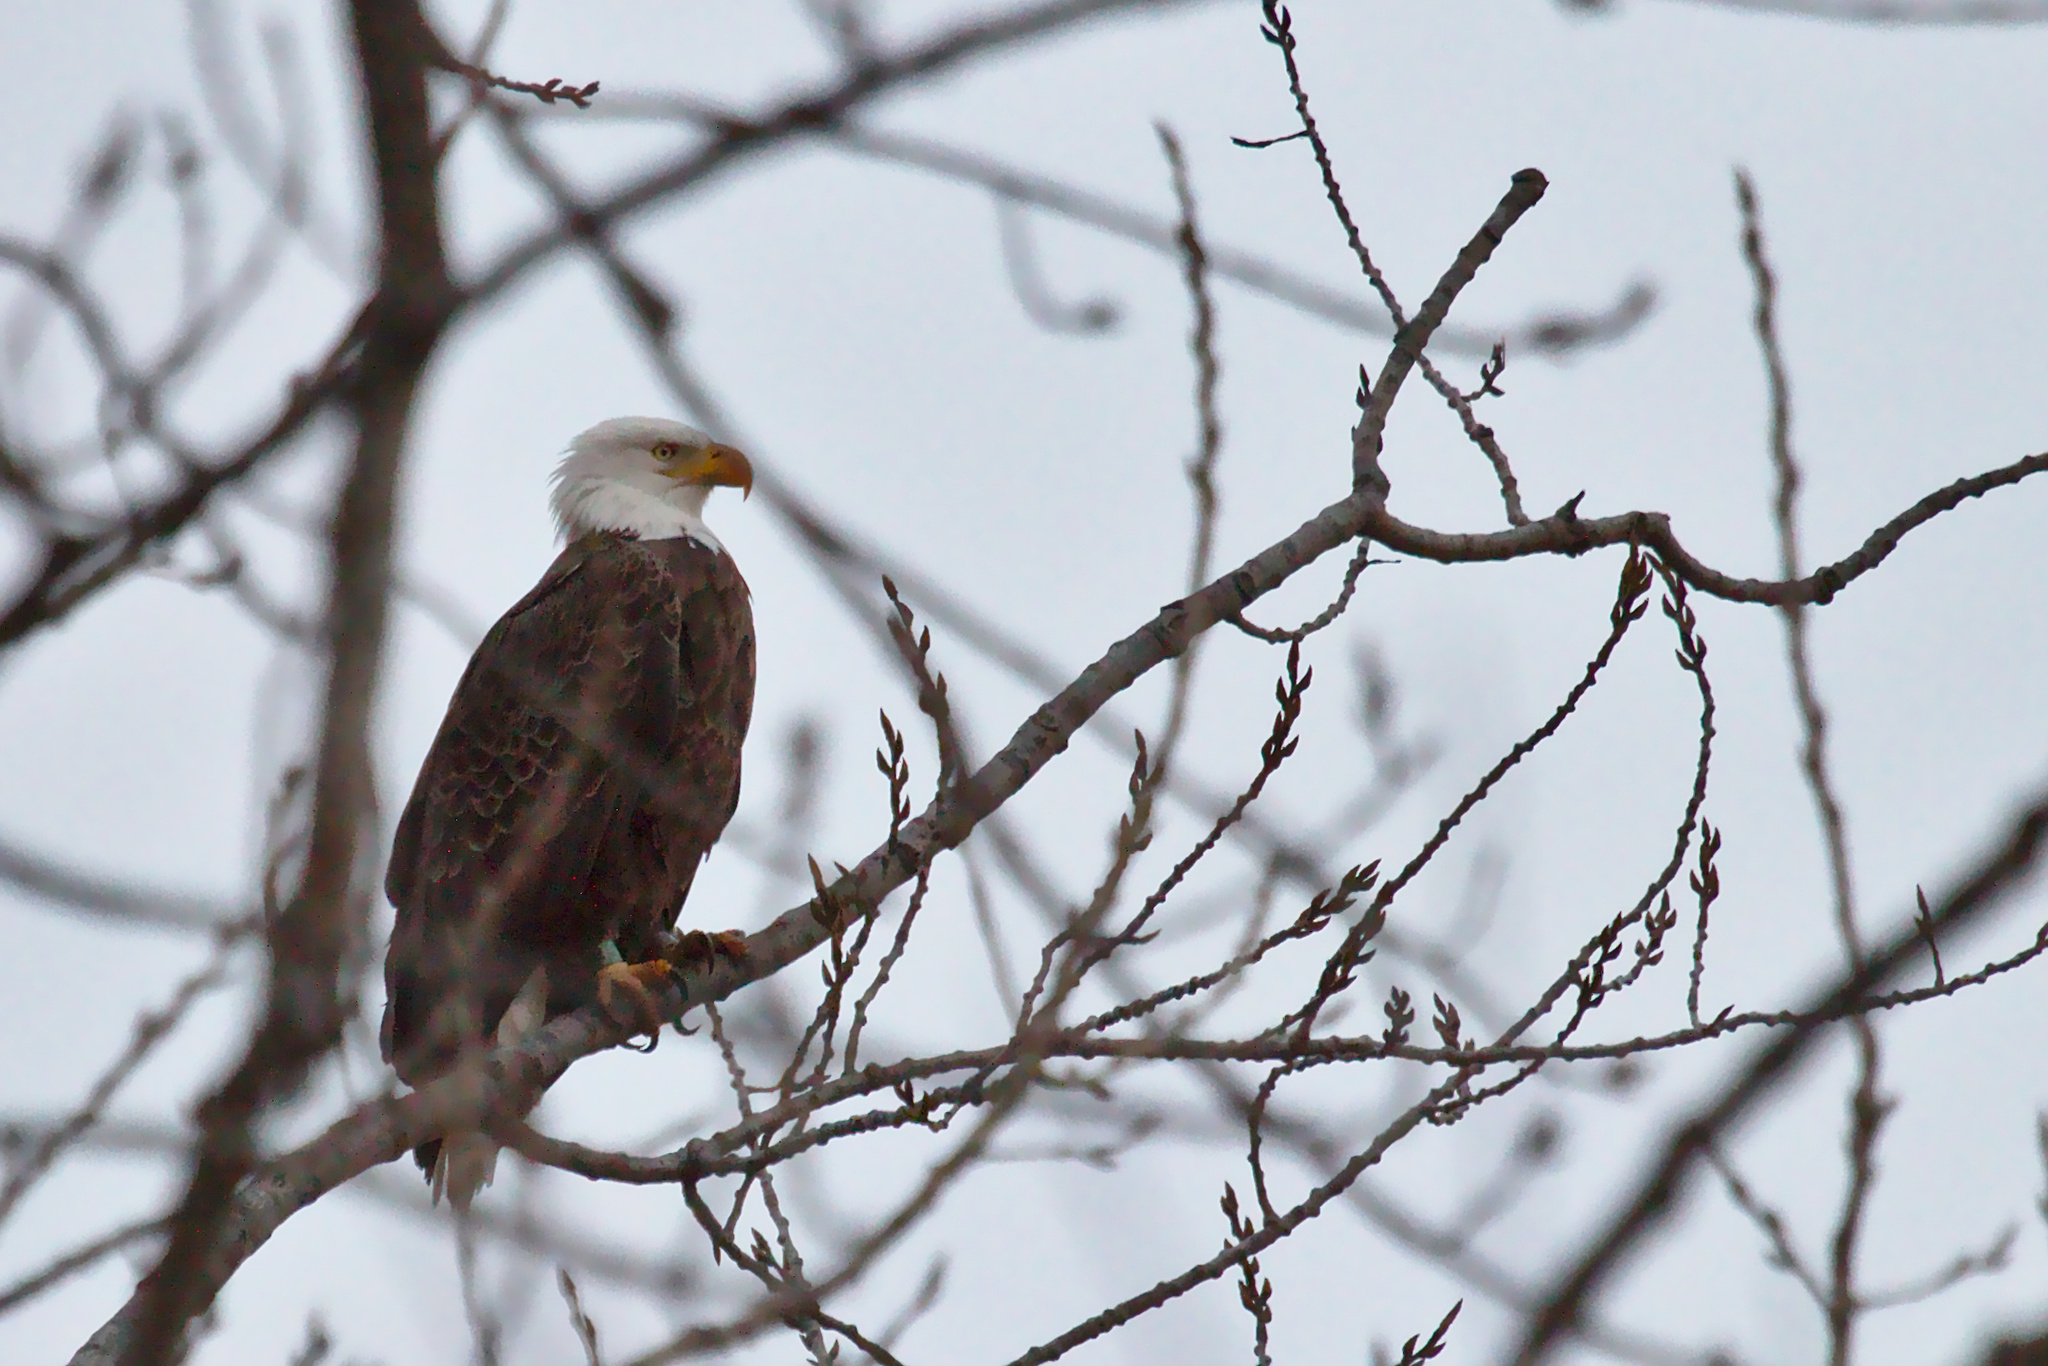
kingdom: Animalia
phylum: Chordata
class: Aves
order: Accipitriformes
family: Accipitridae
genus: Haliaeetus
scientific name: Haliaeetus leucocephalus
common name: Bald eagle
